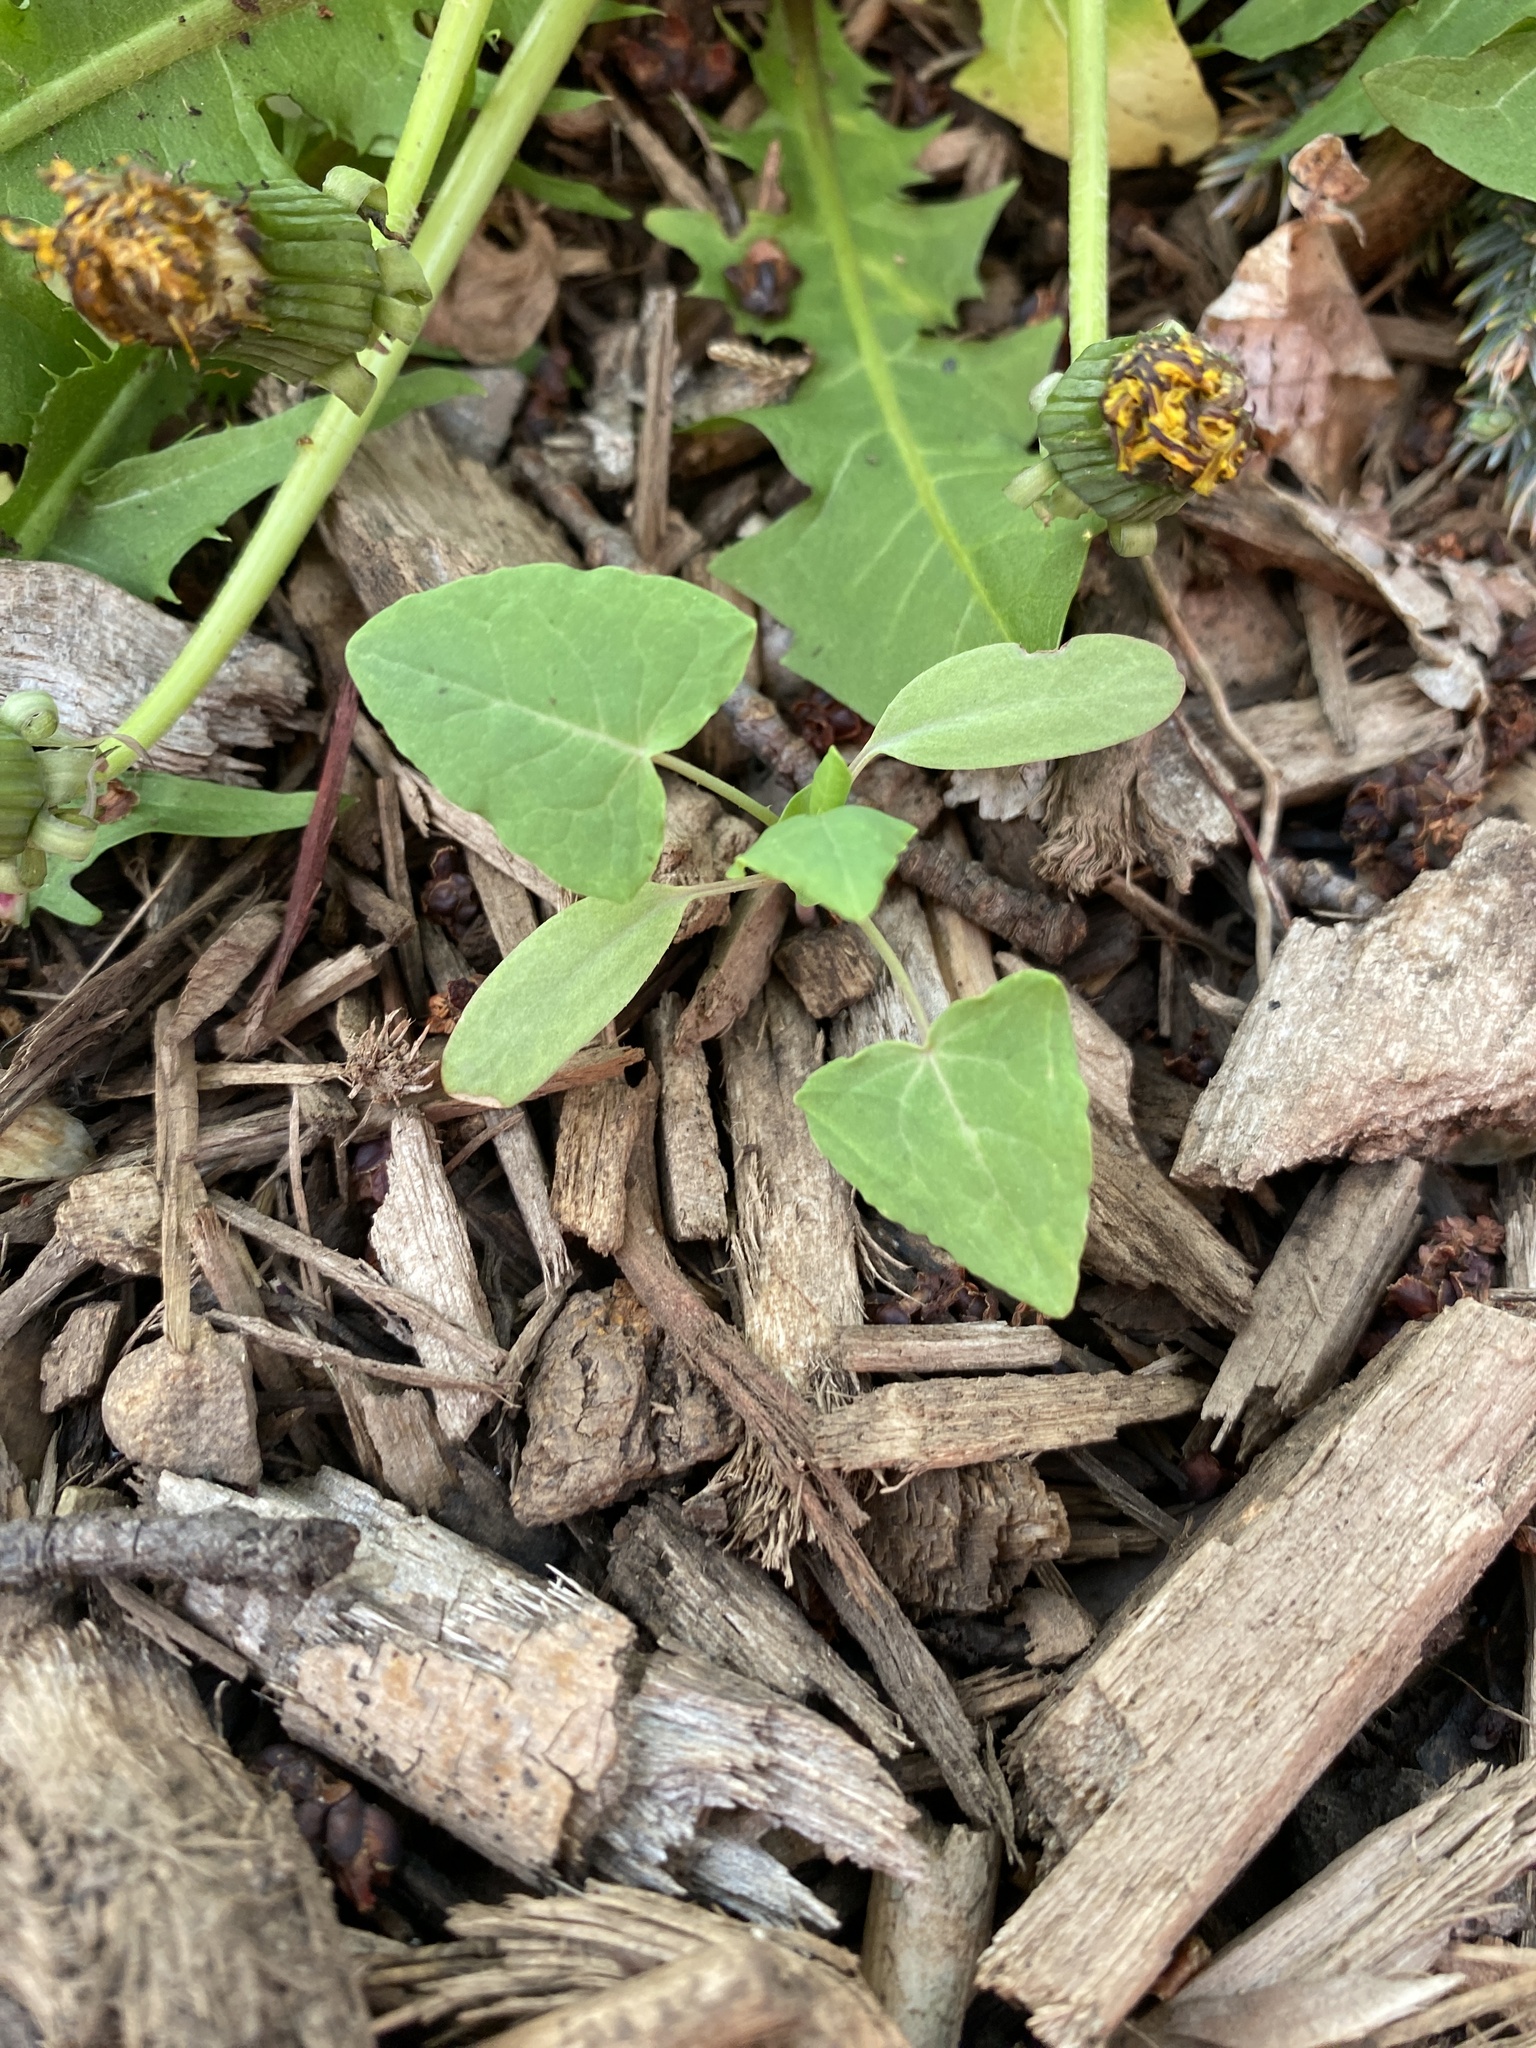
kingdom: Plantae
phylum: Tracheophyta
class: Magnoliopsida
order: Caryophyllales
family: Polygonaceae
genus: Persicaria
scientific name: Persicaria perfoliata
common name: Asiatic tearthumb
